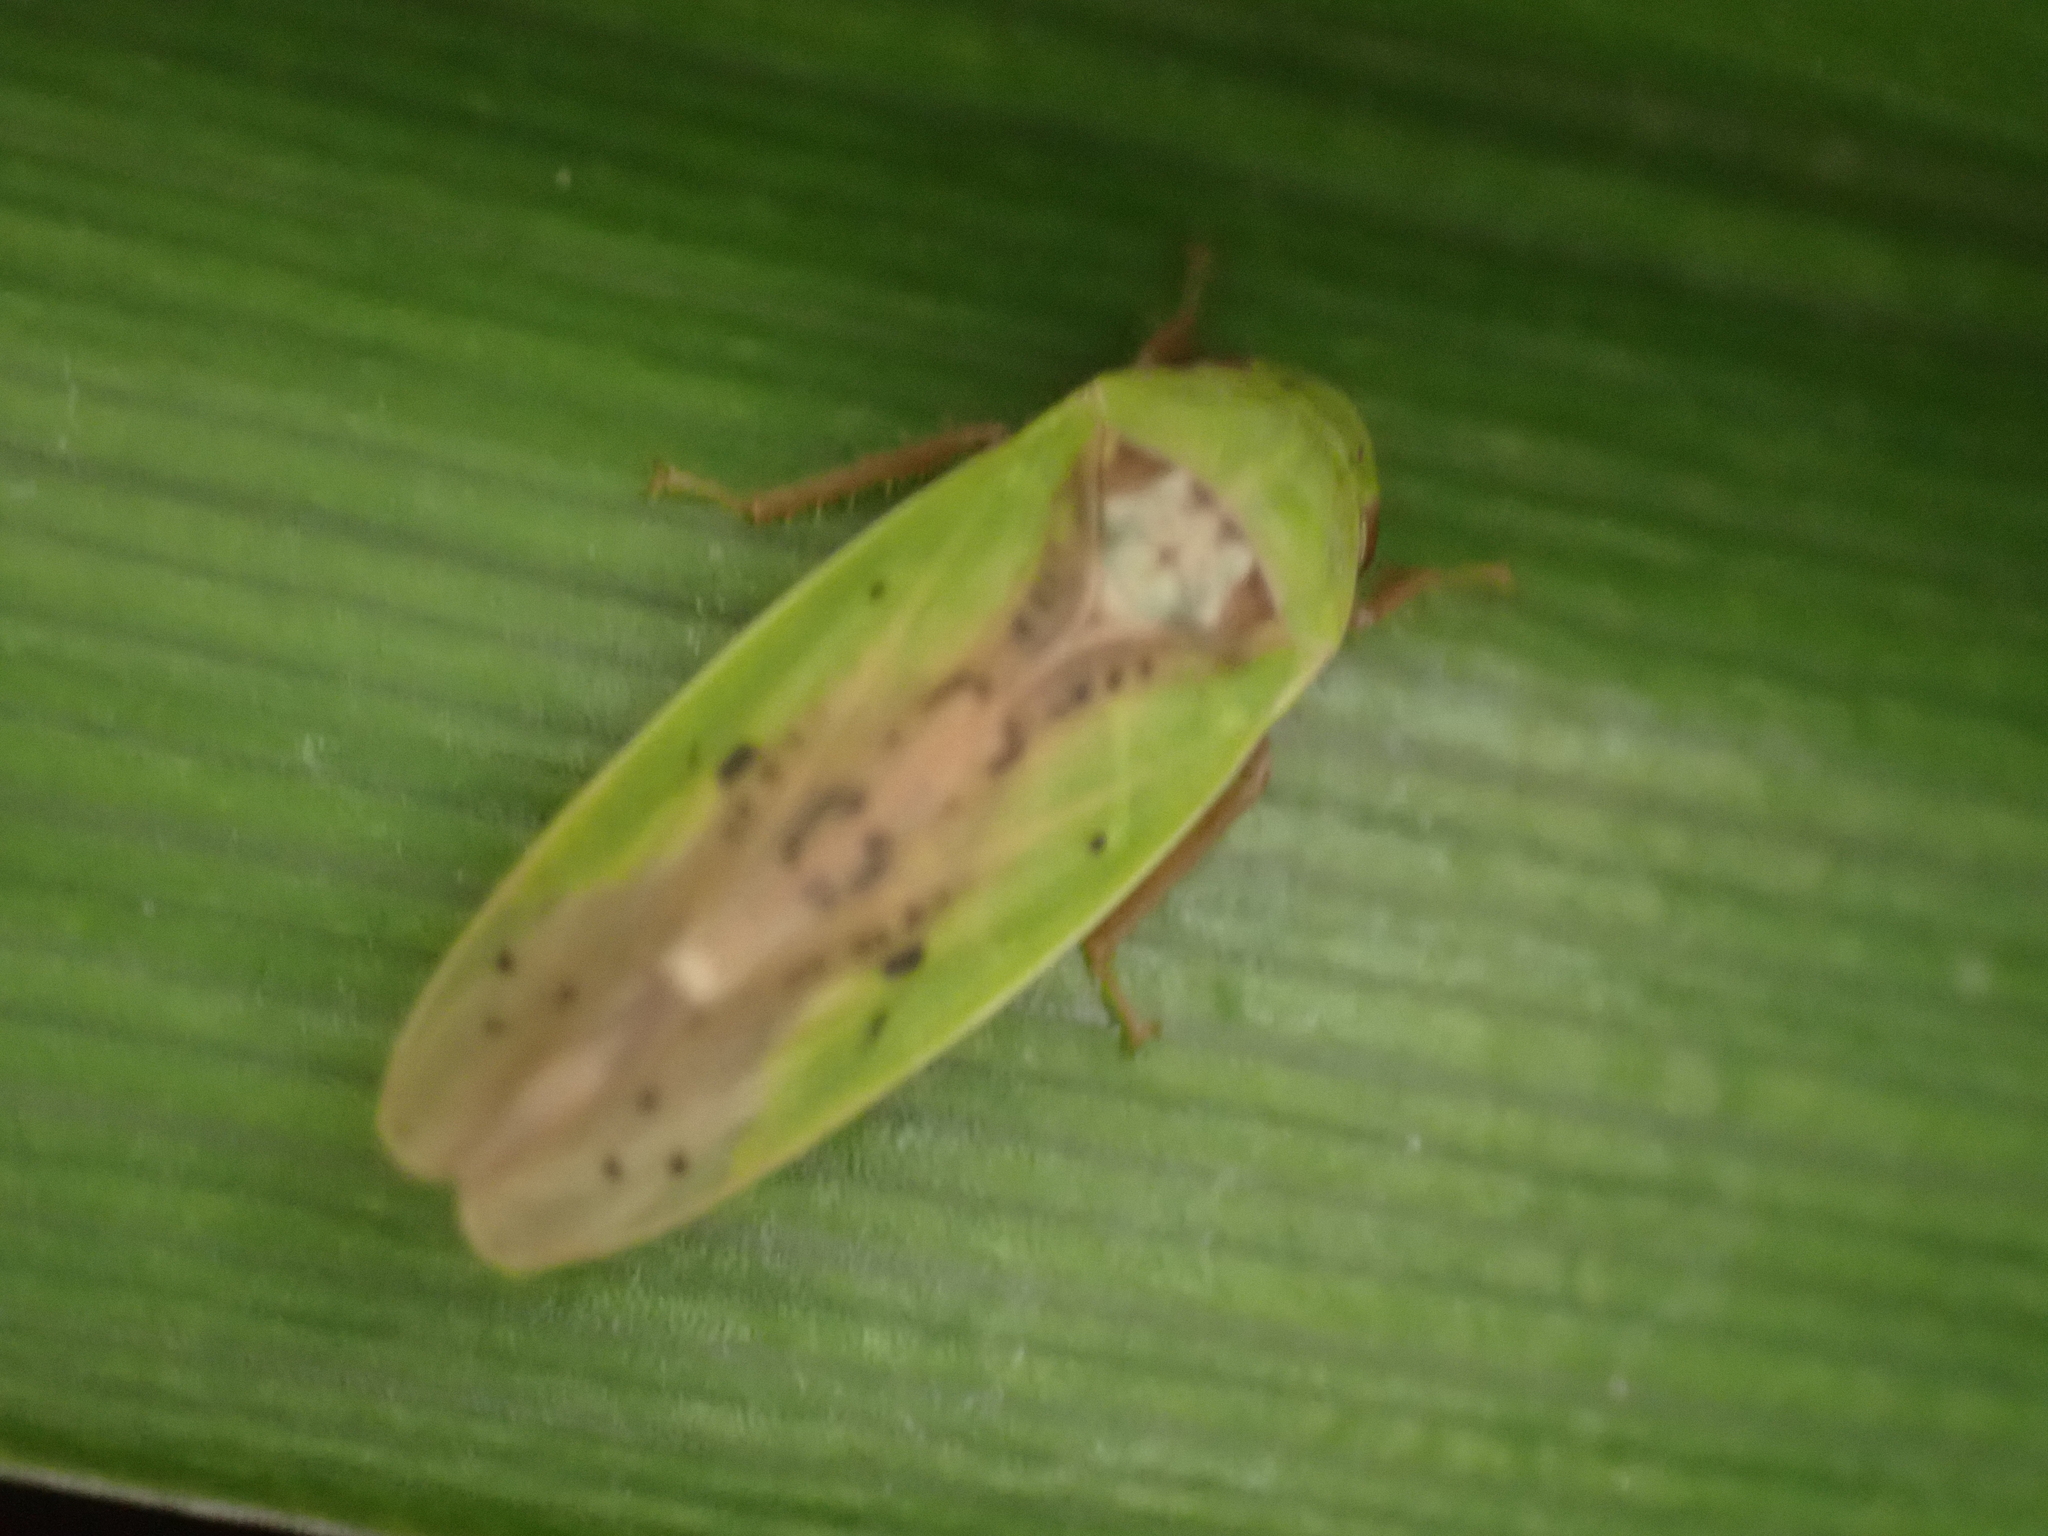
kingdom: Animalia
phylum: Arthropoda
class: Insecta
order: Hemiptera
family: Cicadellidae
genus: Ponana
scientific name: Ponana pectoralis
